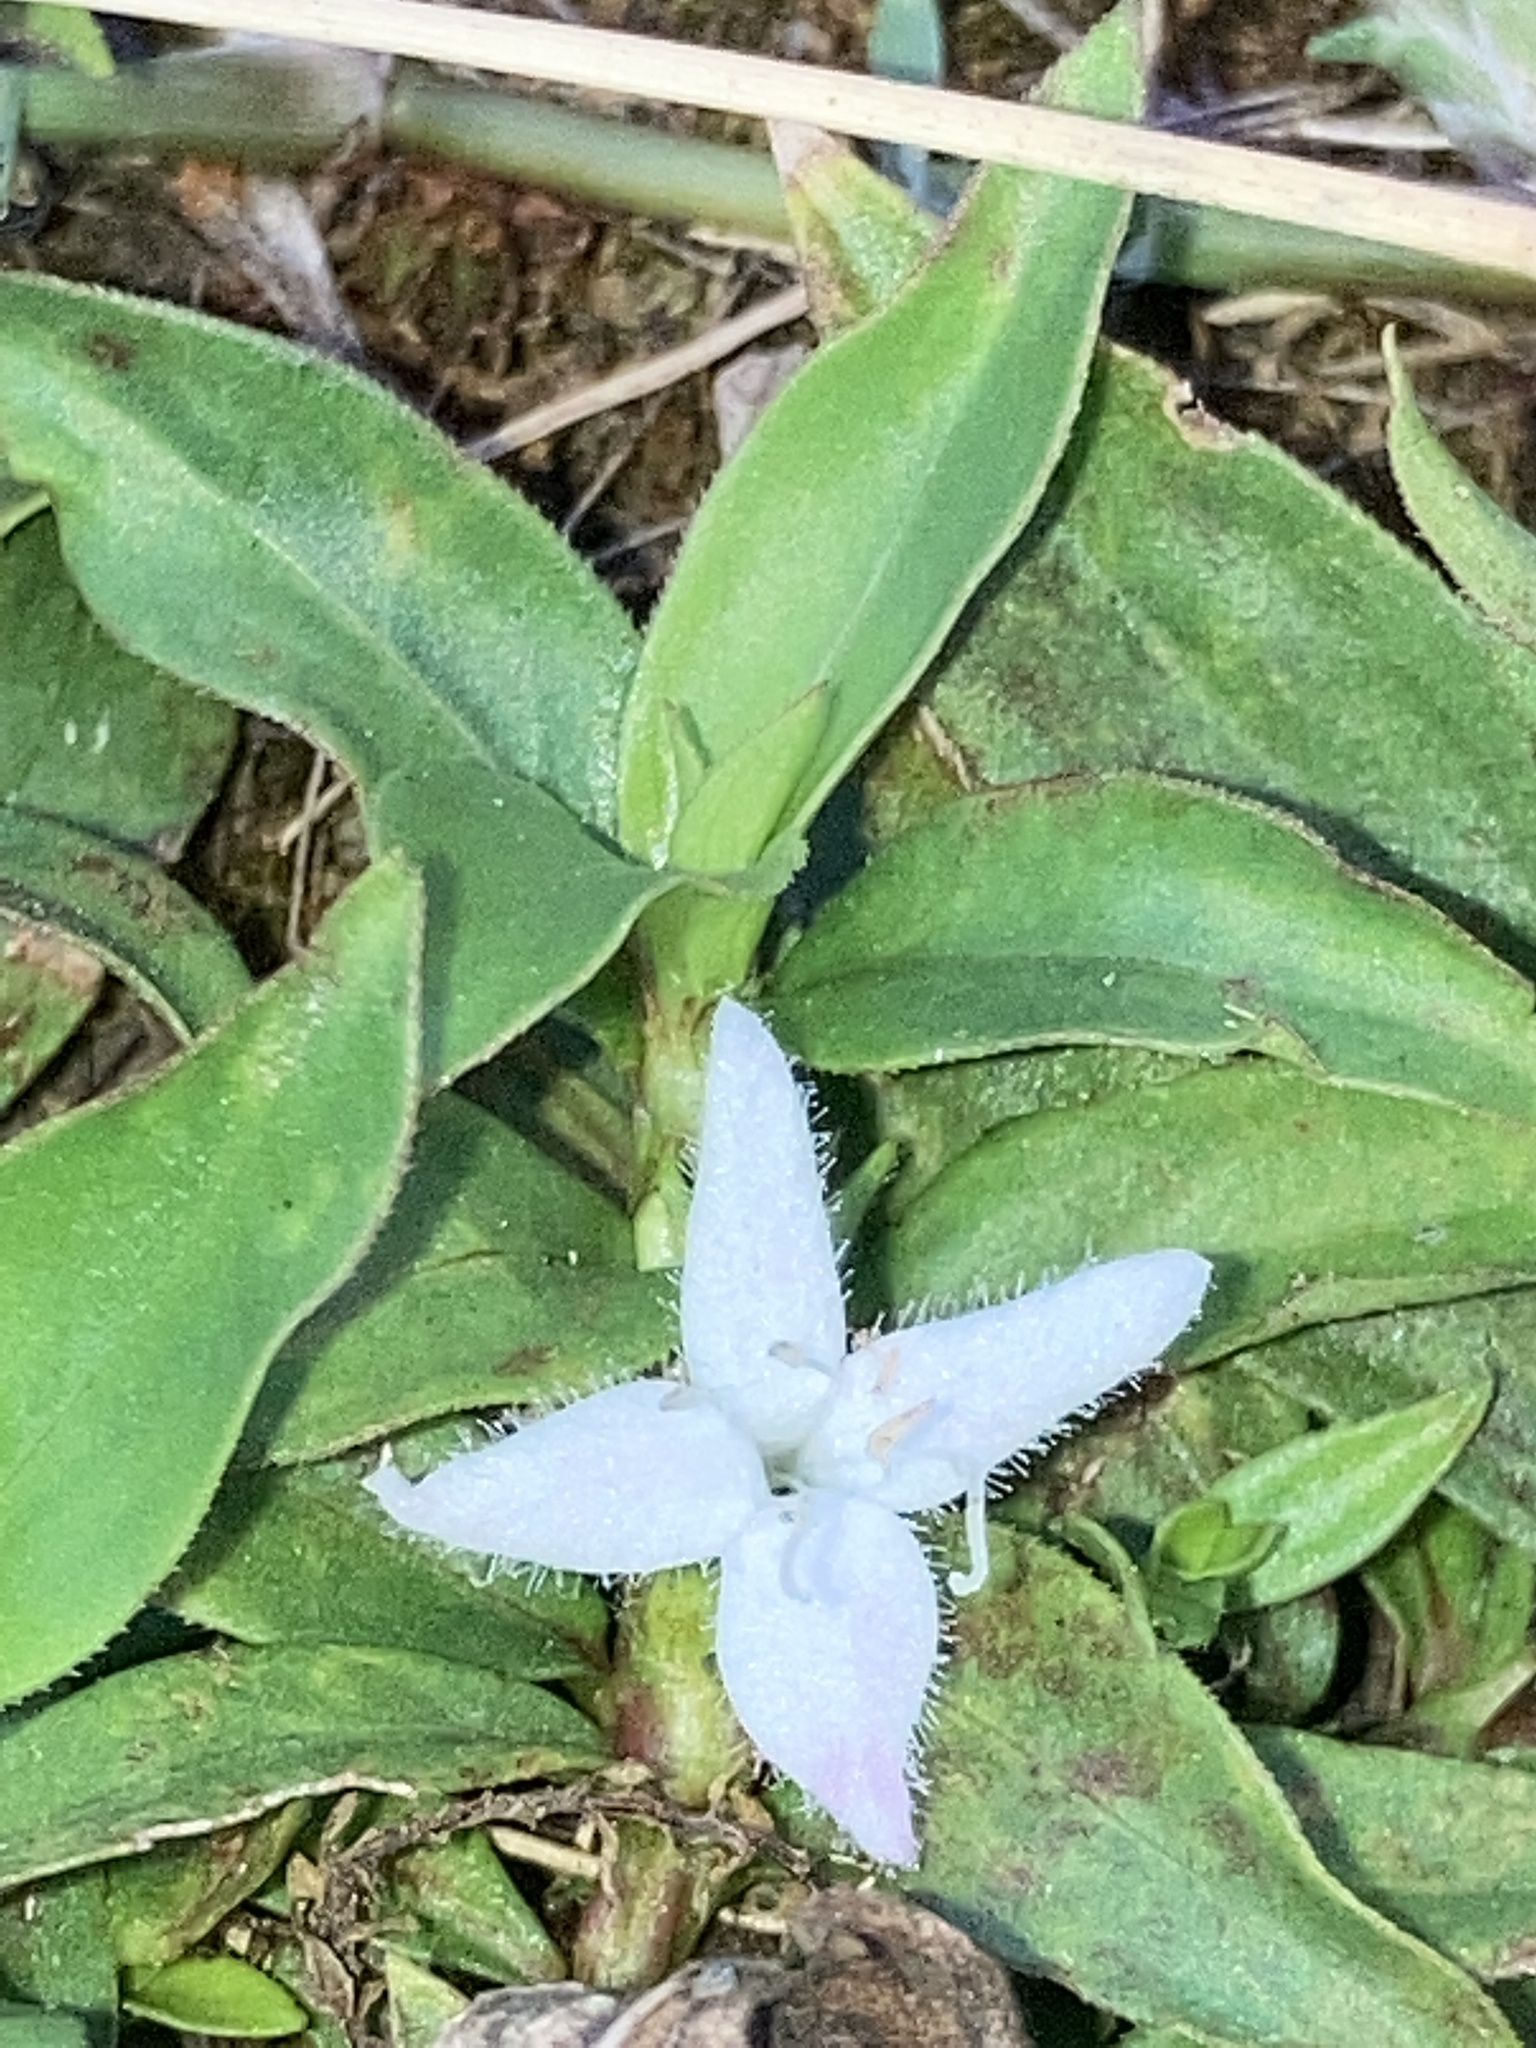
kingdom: Plantae
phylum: Tracheophyta
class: Magnoliopsida
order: Gentianales
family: Rubiaceae
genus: Diodia
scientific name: Diodia virginiana
